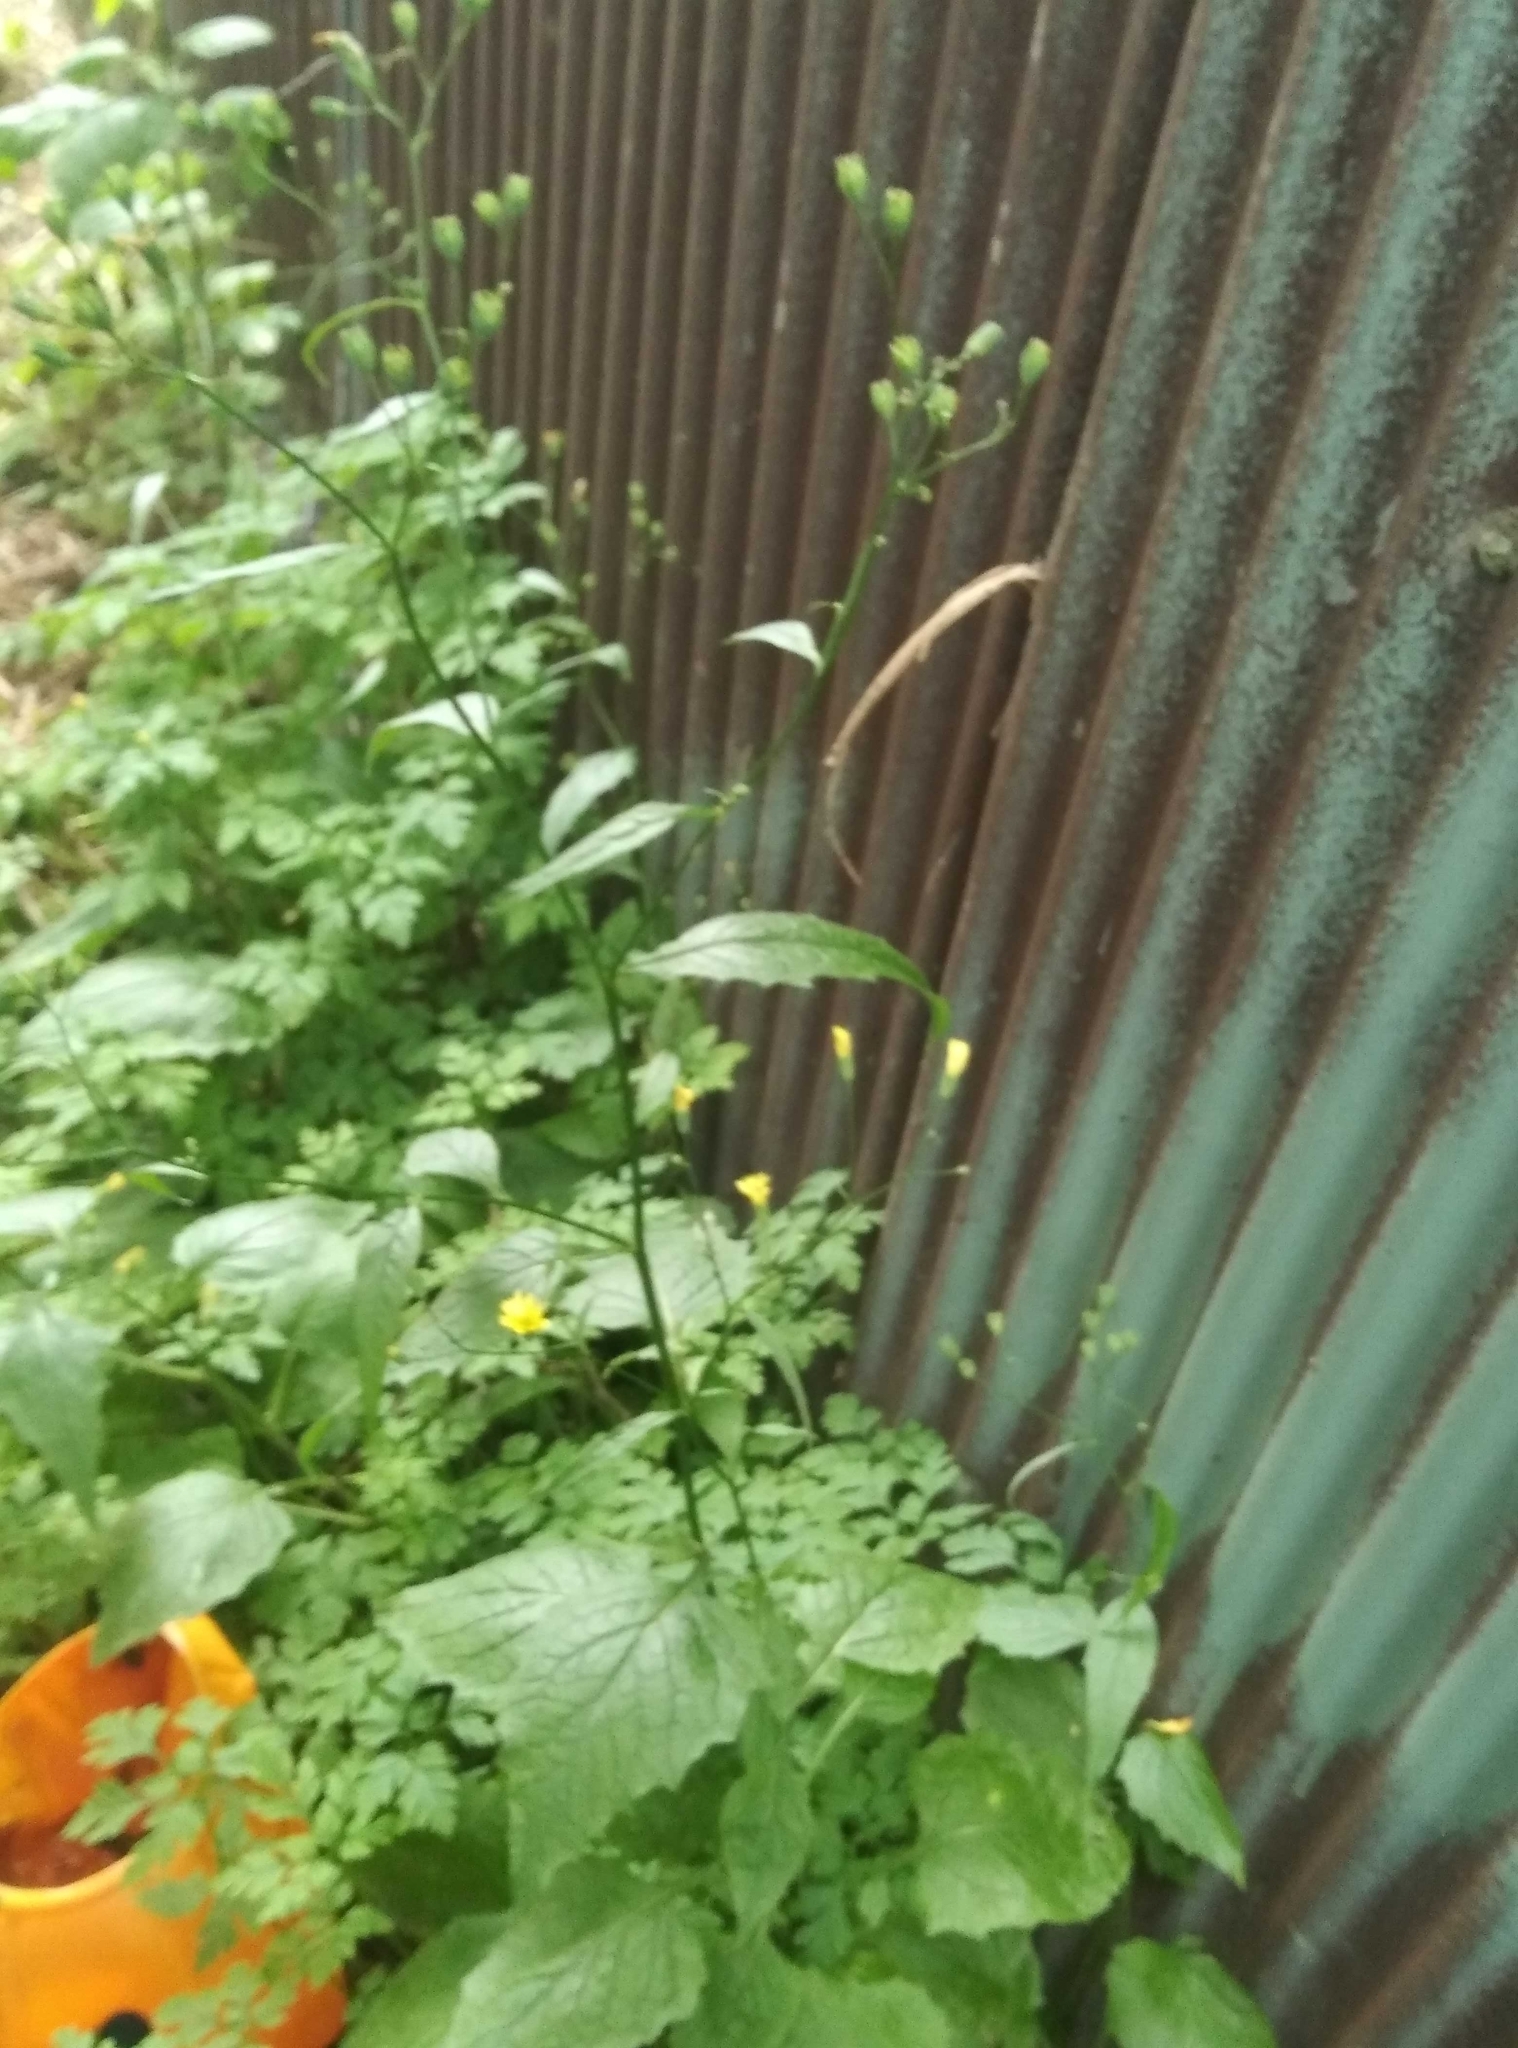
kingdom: Plantae
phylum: Tracheophyta
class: Magnoliopsida
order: Asterales
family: Asteraceae
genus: Lapsana
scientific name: Lapsana communis
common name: Nipplewort
